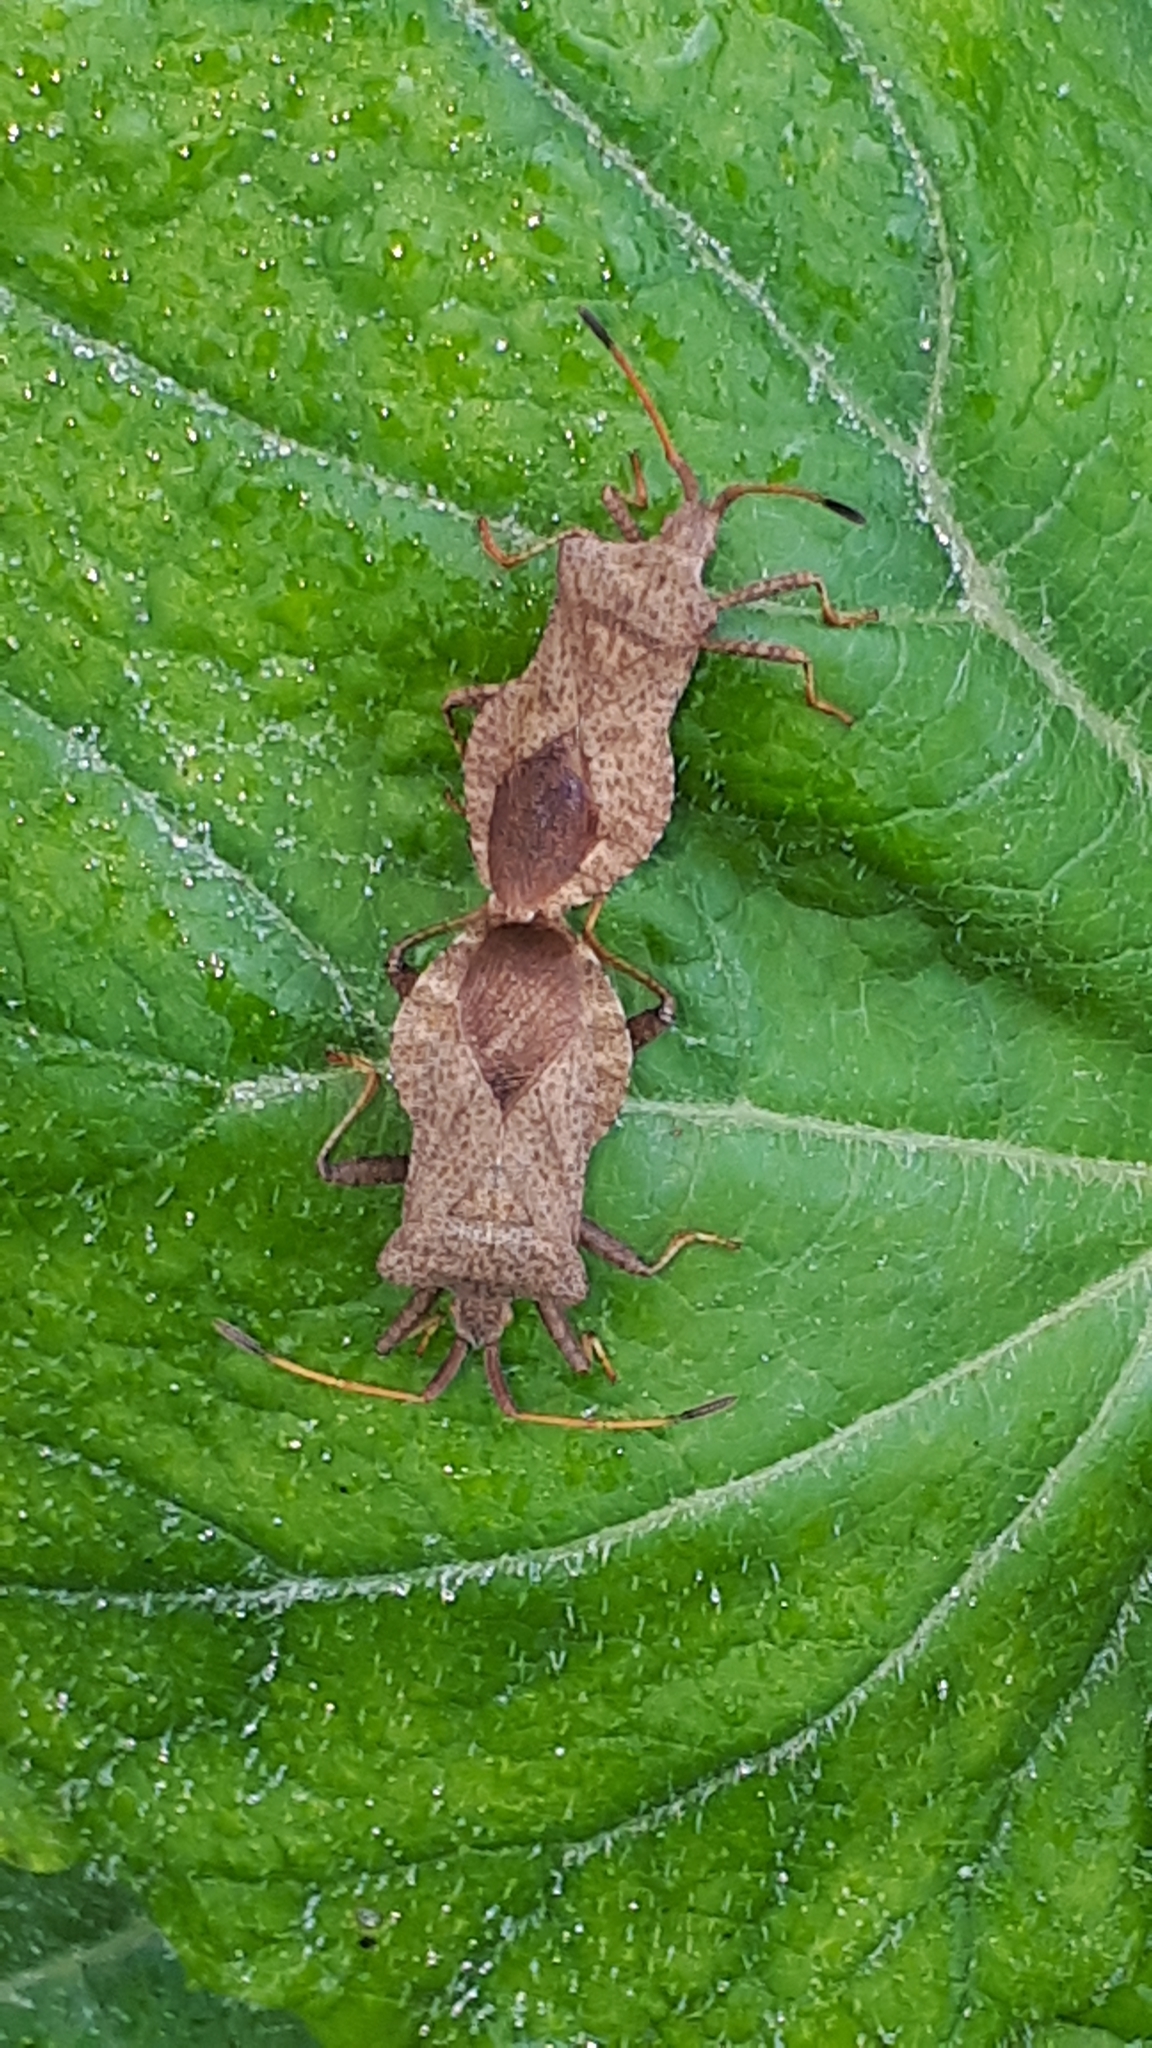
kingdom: Animalia
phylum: Arthropoda
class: Insecta
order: Hemiptera
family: Coreidae
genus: Coreus
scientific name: Coreus marginatus
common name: Dock bug
